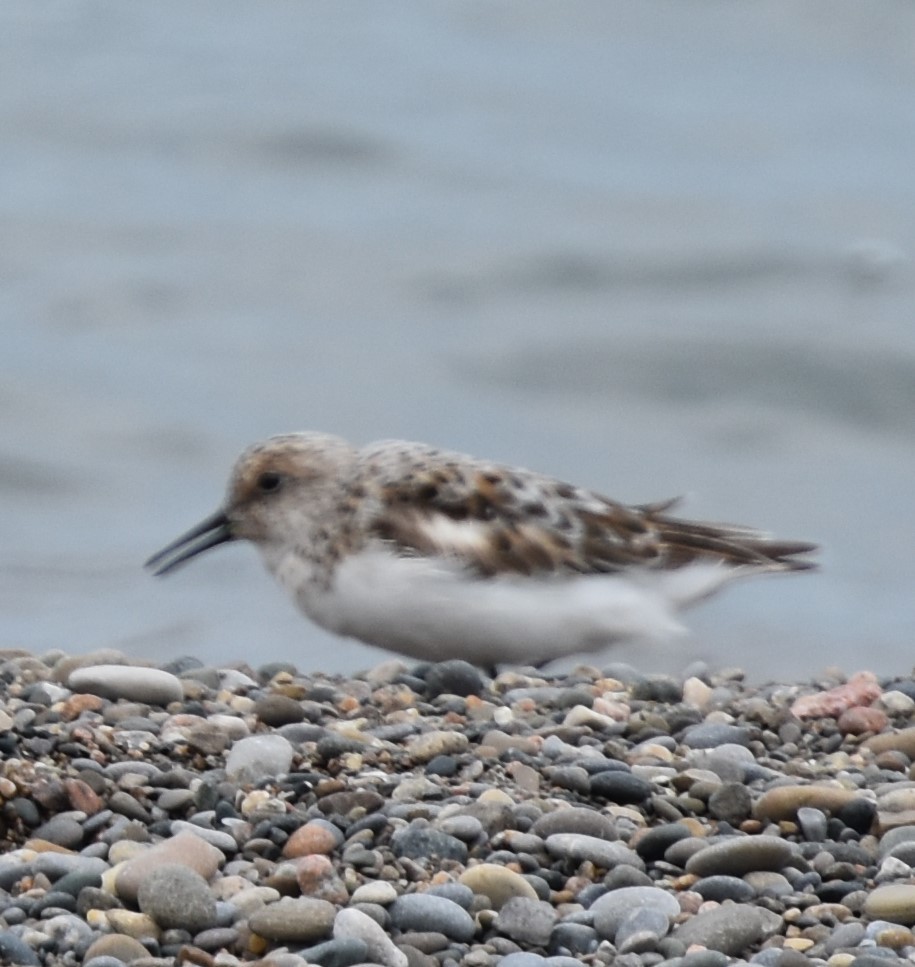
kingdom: Animalia
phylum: Chordata
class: Aves
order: Charadriiformes
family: Scolopacidae
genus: Calidris
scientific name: Calidris alba
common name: Sanderling
